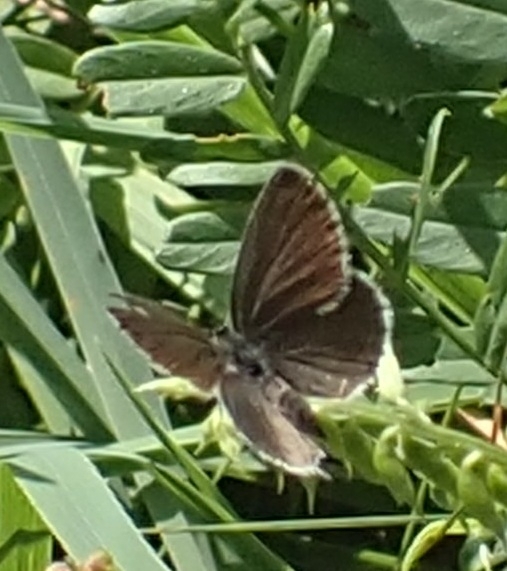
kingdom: Animalia
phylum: Arthropoda
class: Insecta
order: Lepidoptera
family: Lycaenidae
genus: Elkalyce
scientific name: Elkalyce argiades
